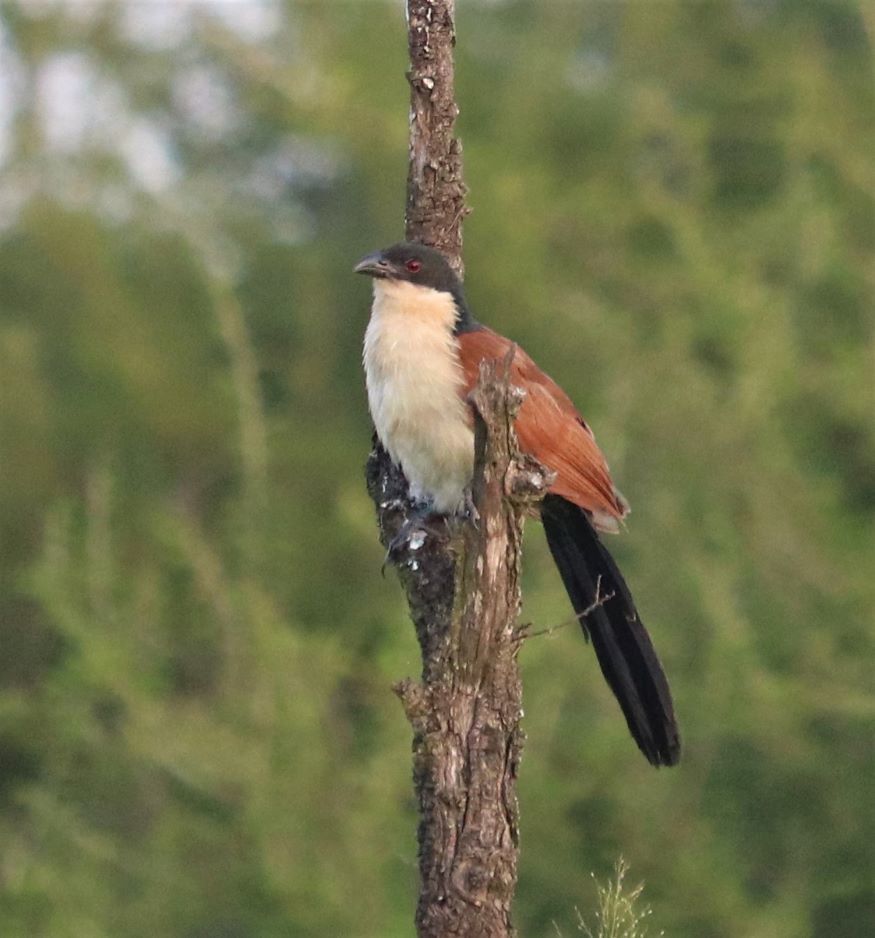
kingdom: Animalia
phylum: Chordata
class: Aves
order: Cuculiformes
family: Cuculidae
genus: Centropus
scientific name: Centropus superciliosus
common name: White-browed coucal
